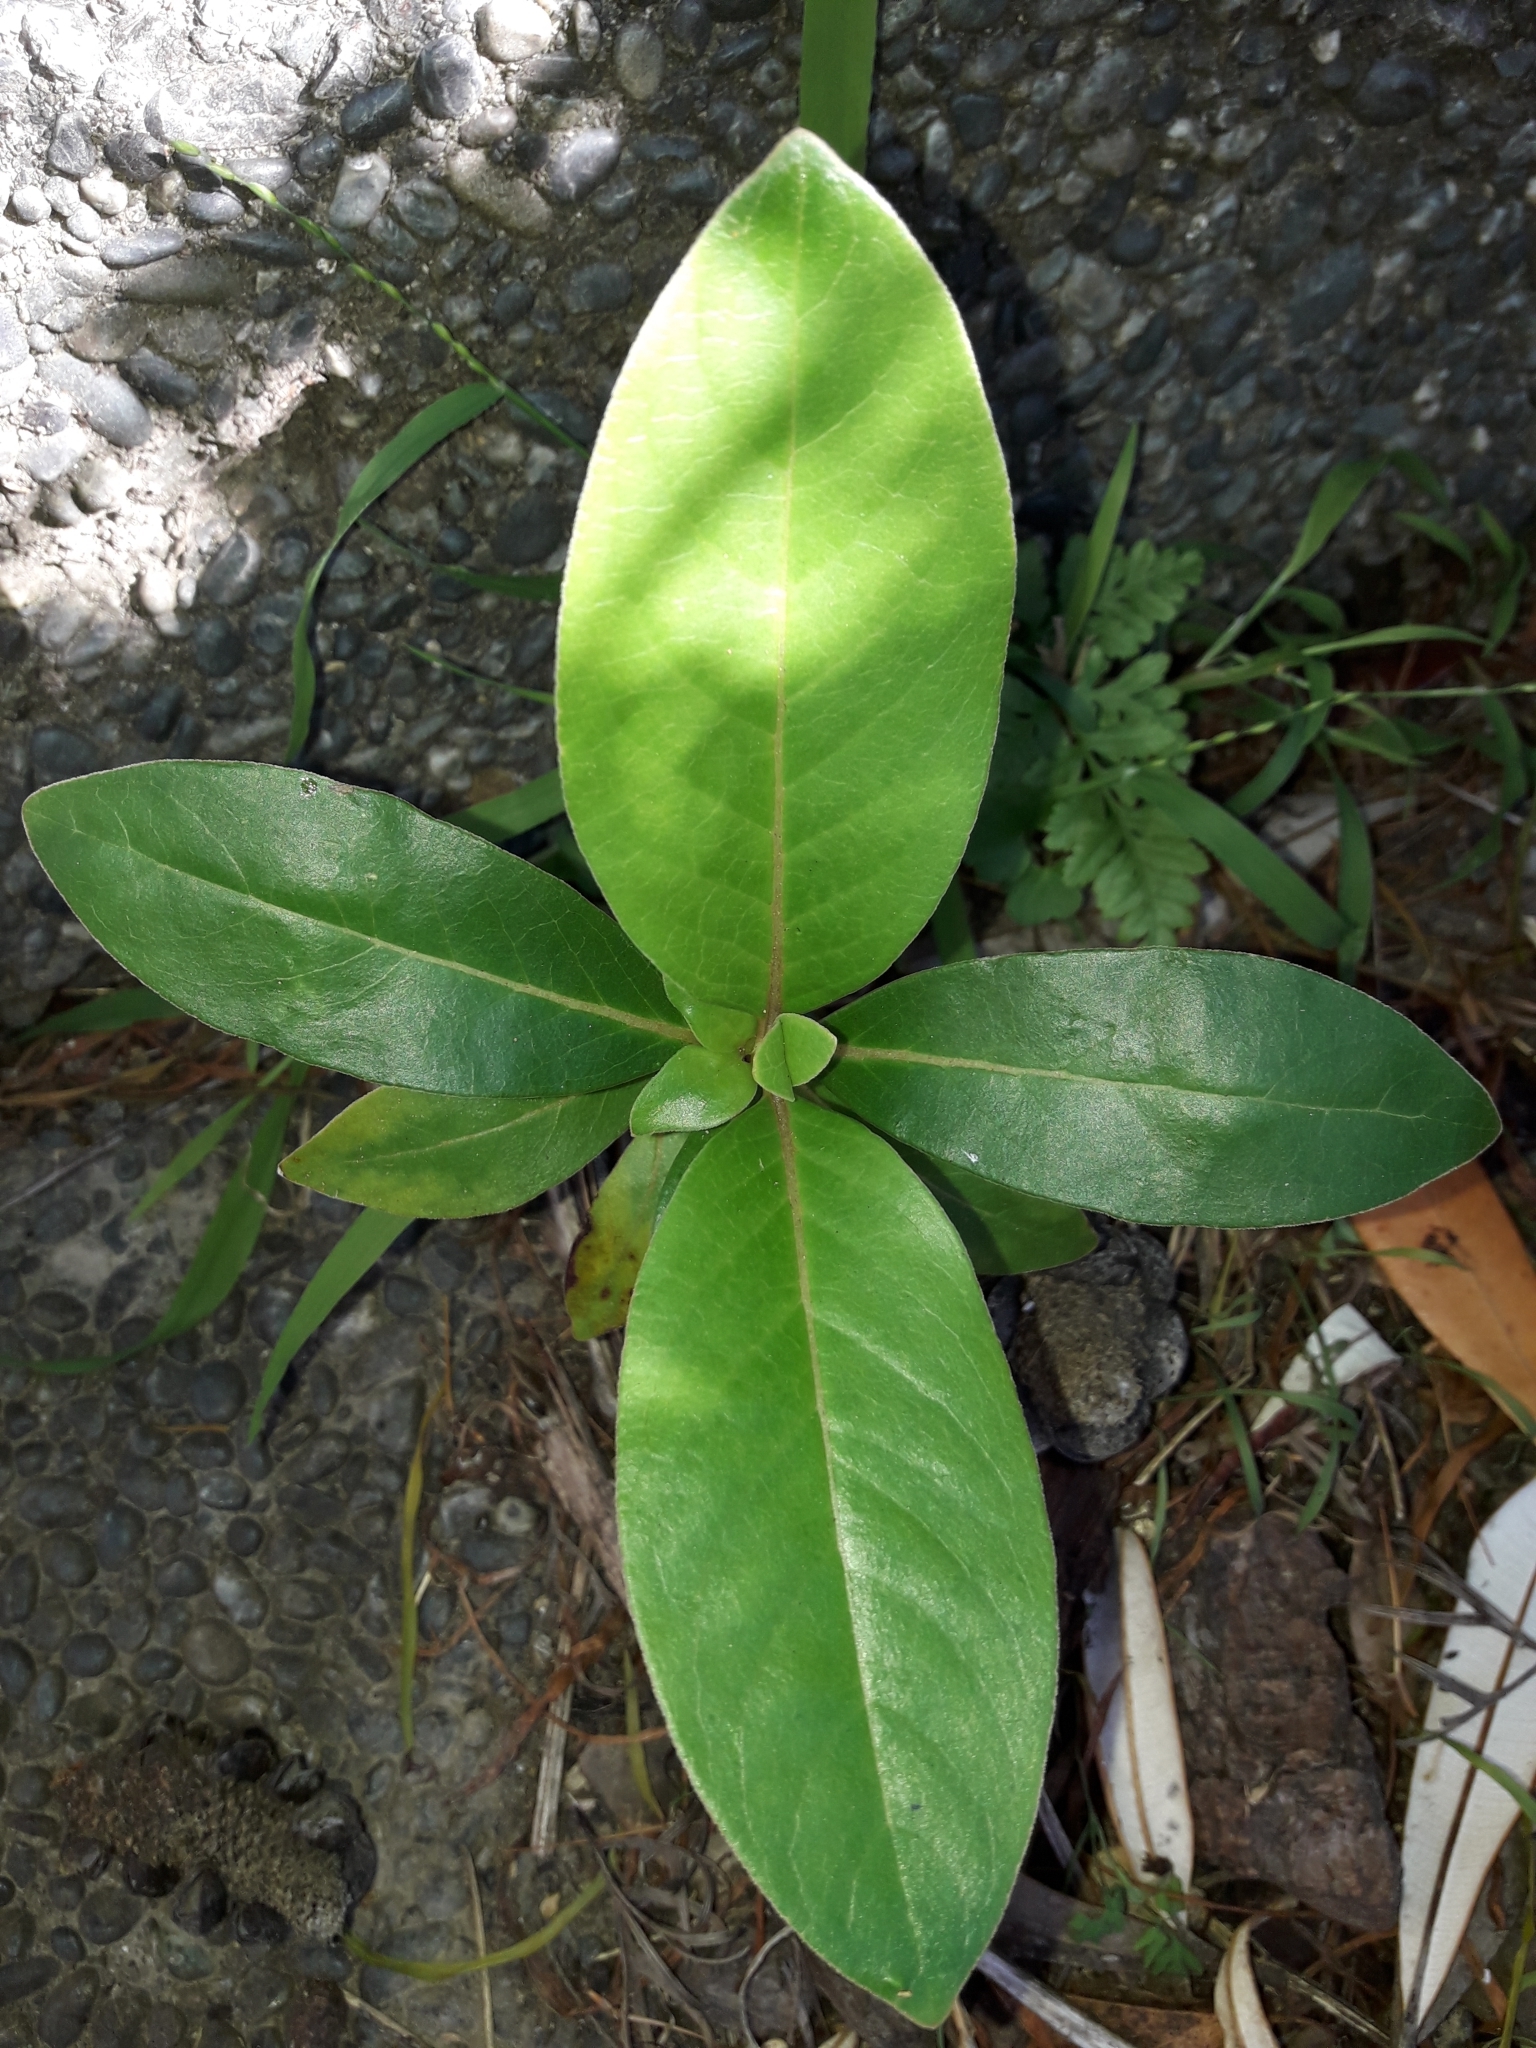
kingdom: Plantae
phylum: Tracheophyta
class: Magnoliopsida
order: Gentianales
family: Rubiaceae
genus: Coprosma
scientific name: Coprosma robusta
